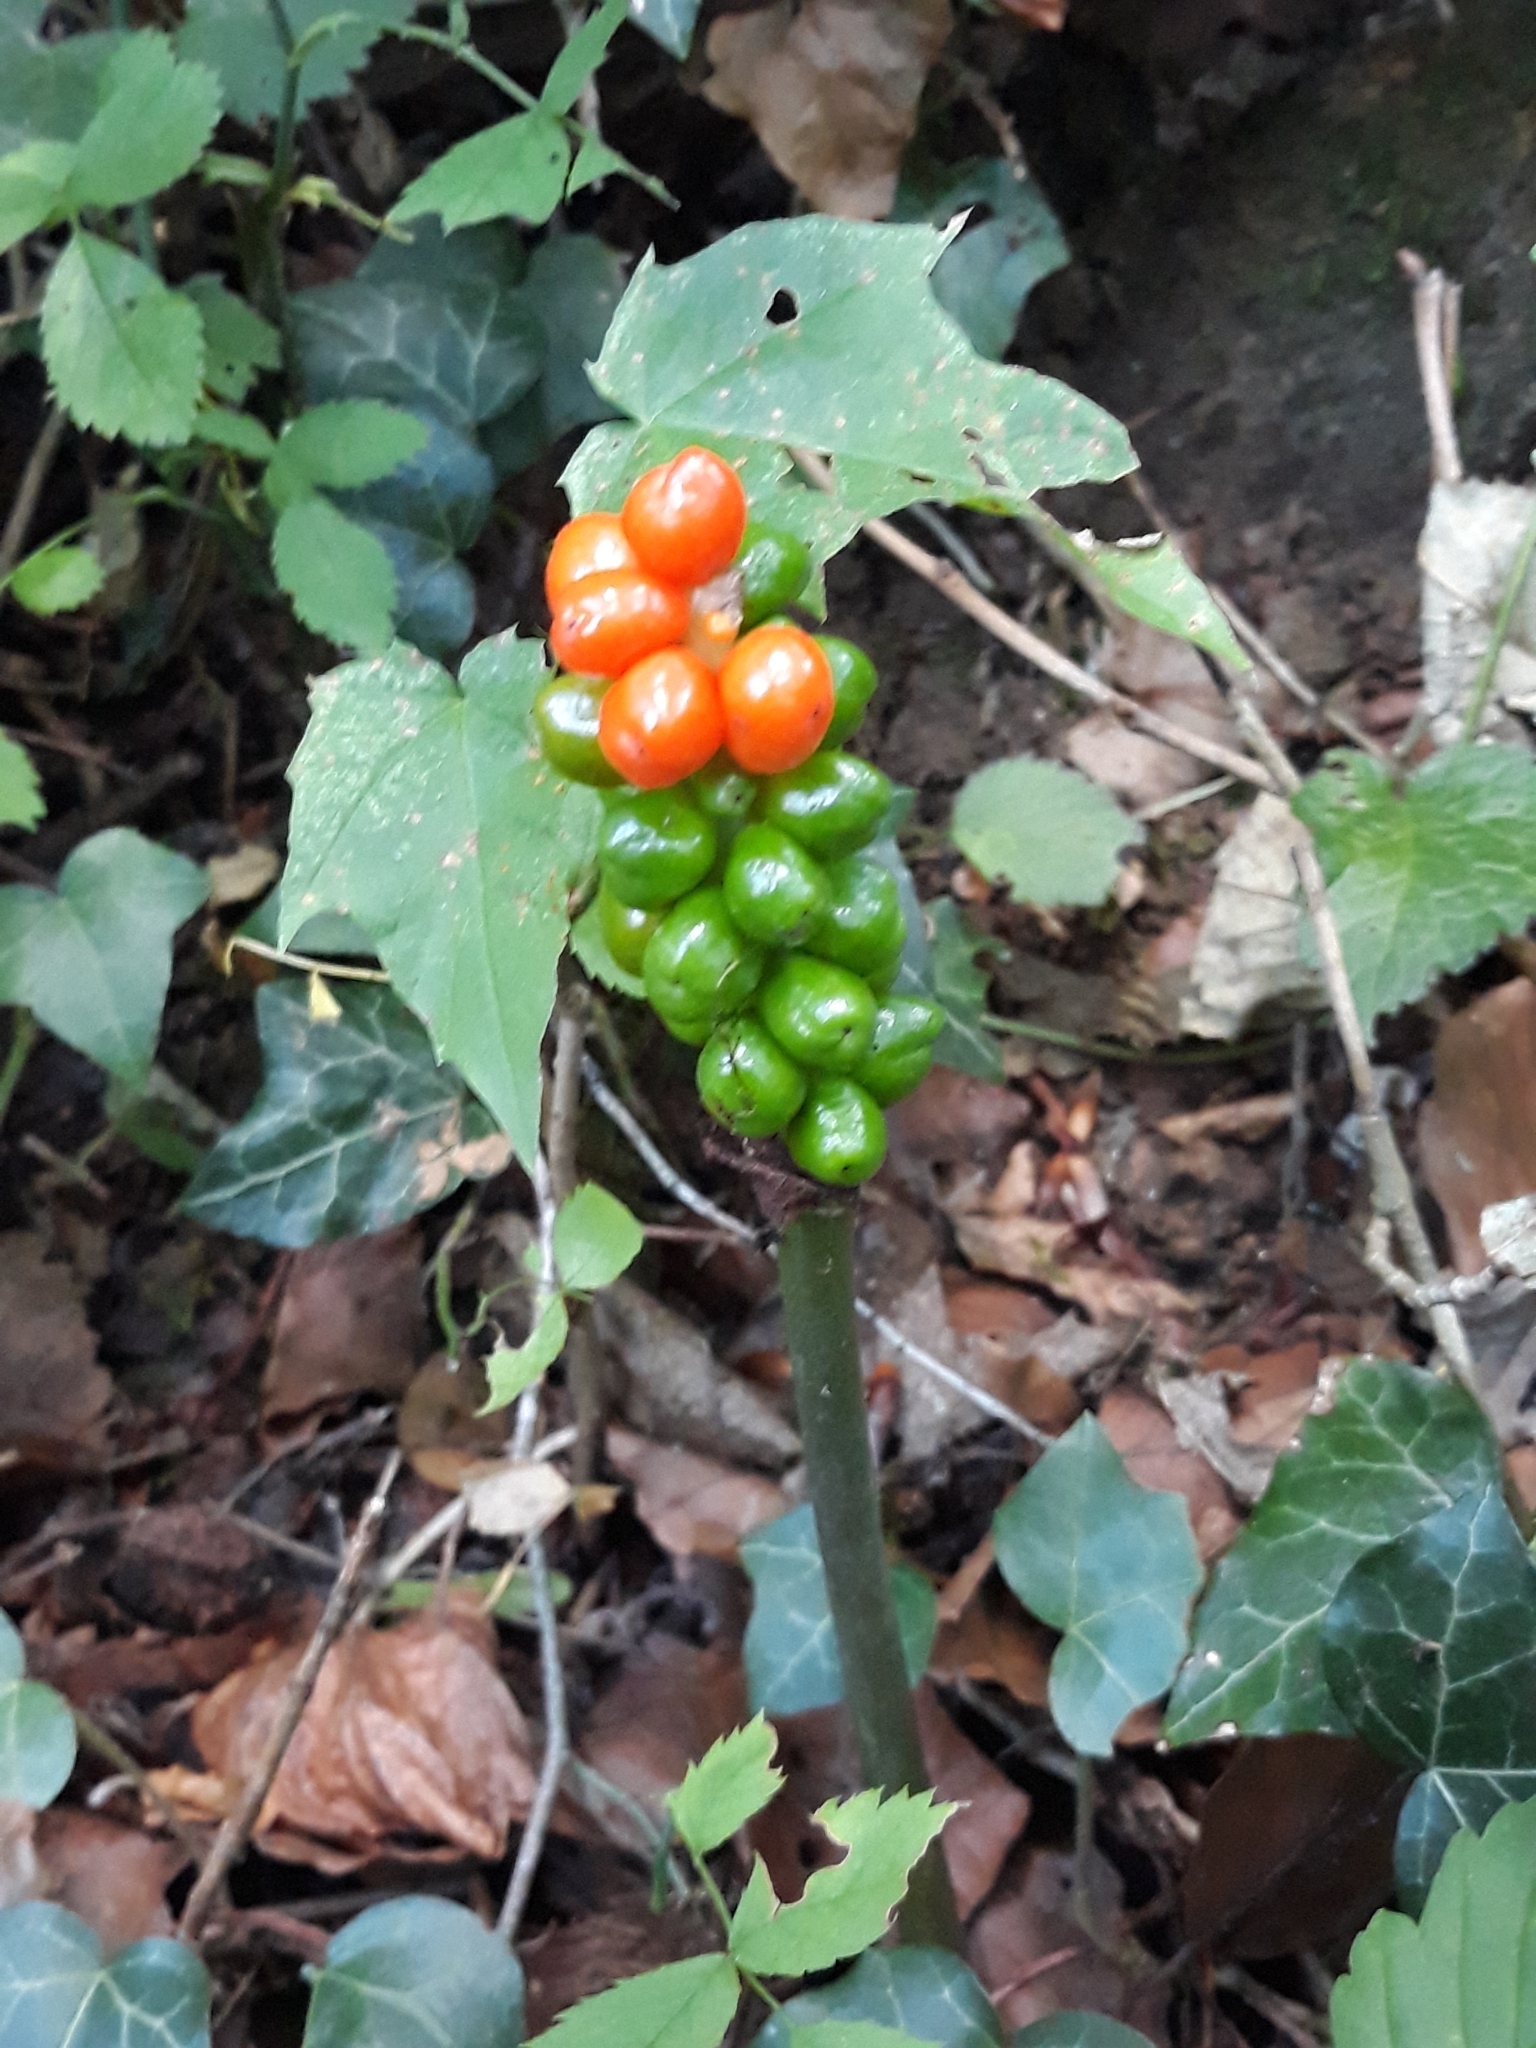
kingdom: Plantae
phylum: Tracheophyta
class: Liliopsida
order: Alismatales
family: Araceae
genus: Arum
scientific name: Arum maculatum
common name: Lords-and-ladies
